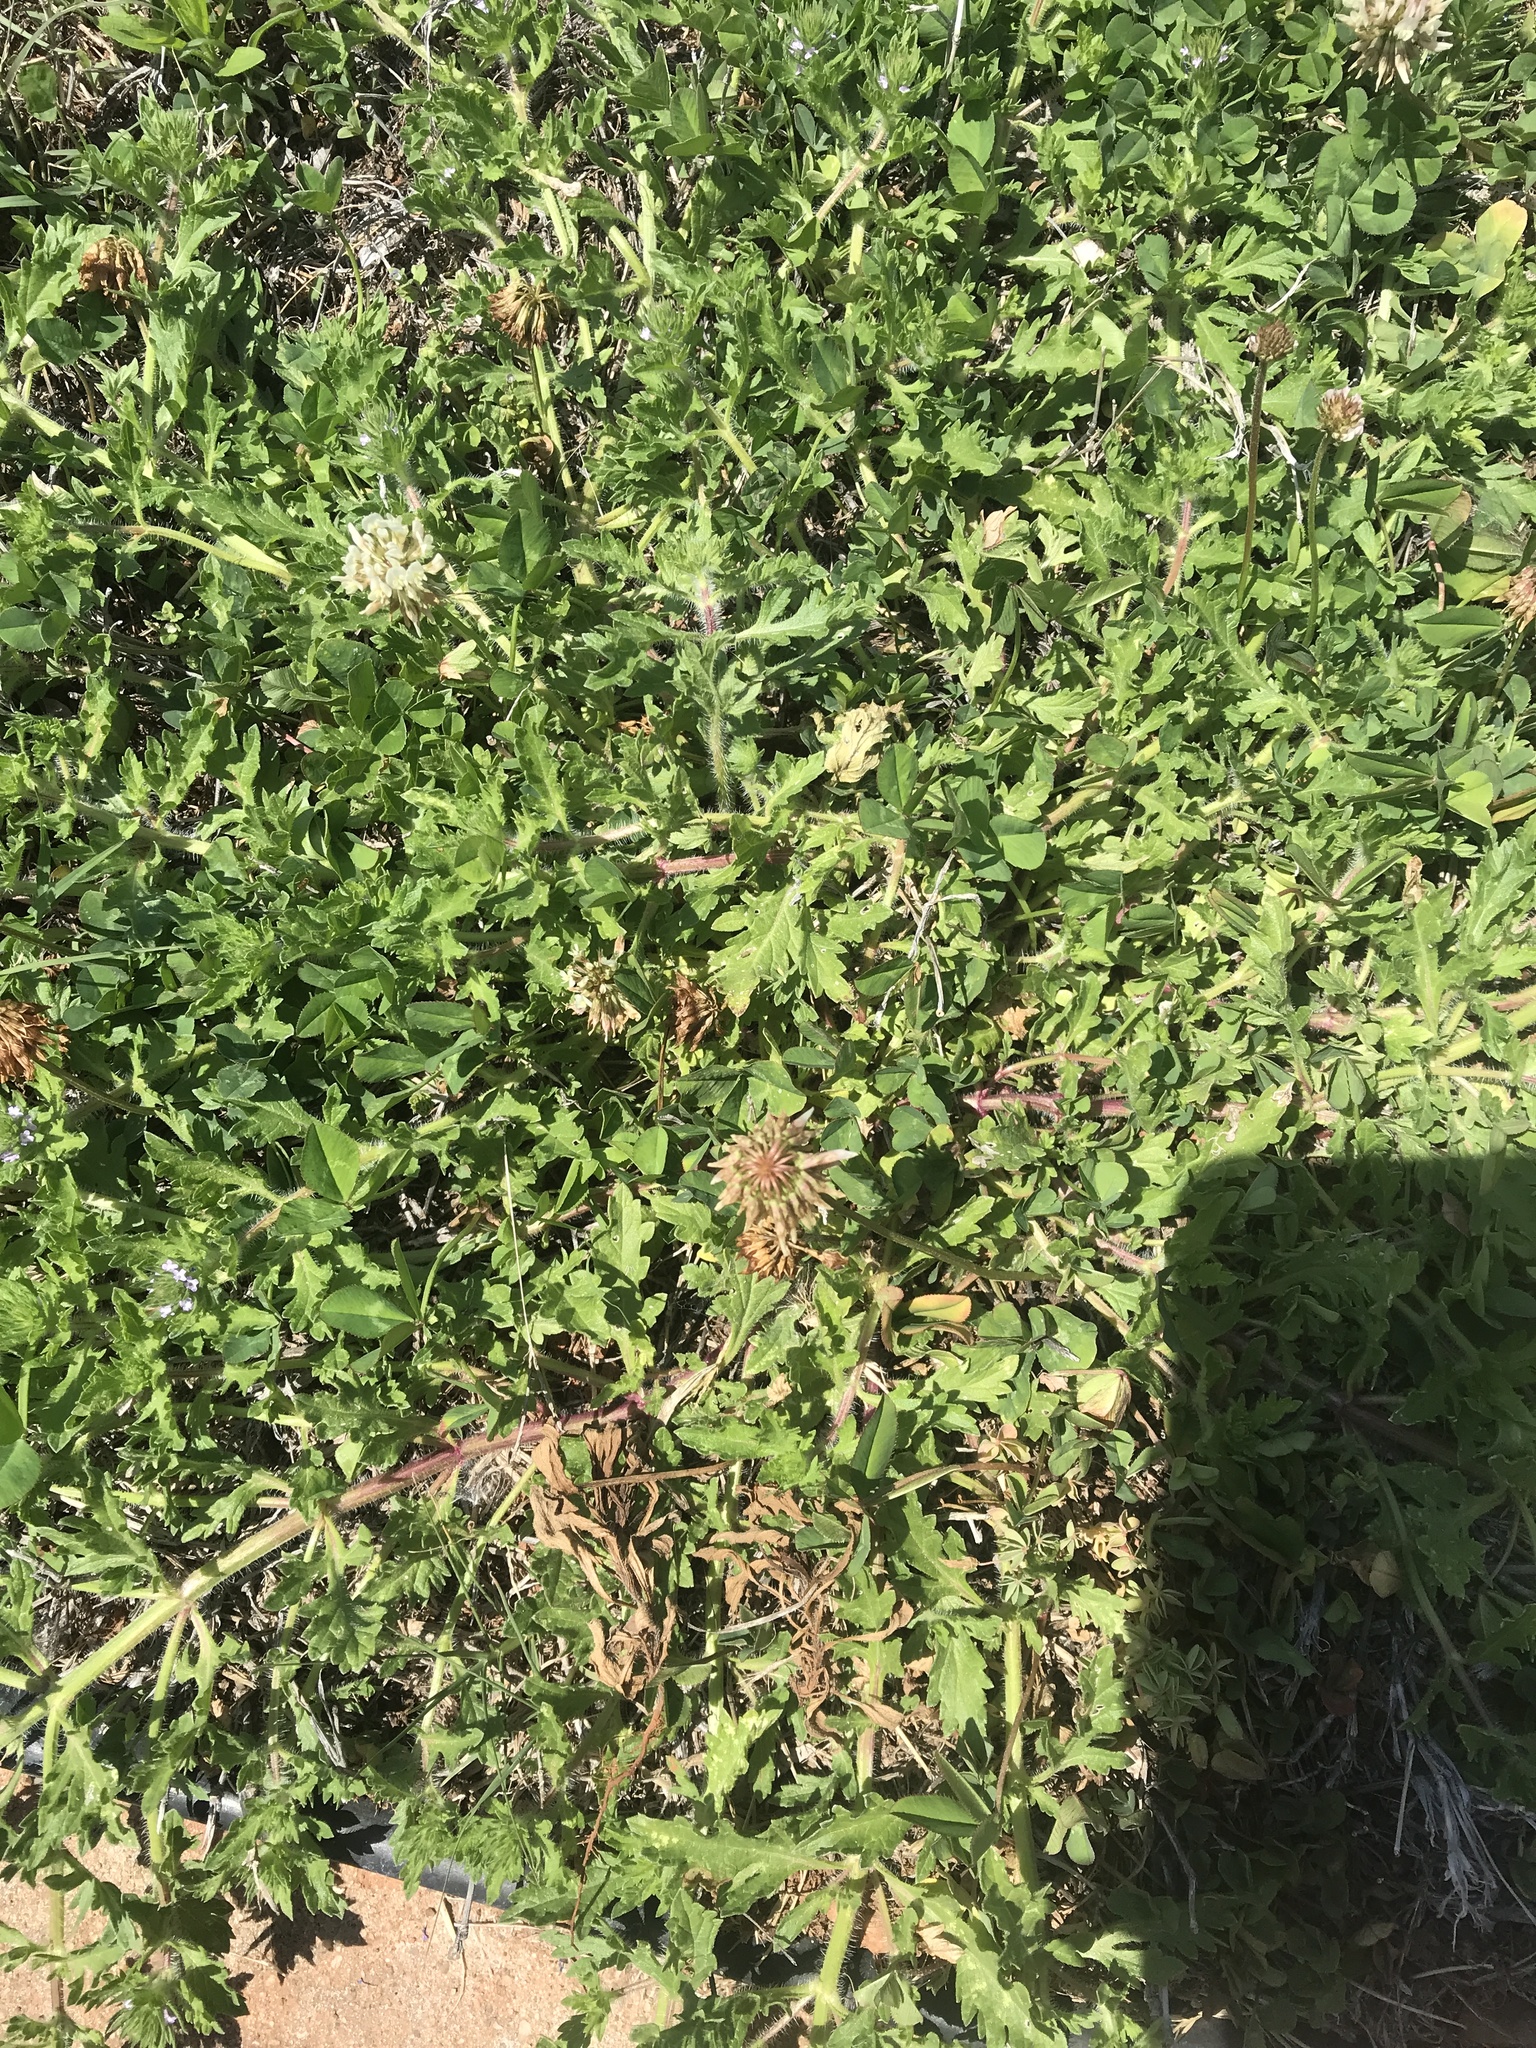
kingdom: Plantae
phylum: Tracheophyta
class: Magnoliopsida
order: Lamiales
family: Verbenaceae
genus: Verbena
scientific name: Verbena bracteata
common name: Bracted vervain
